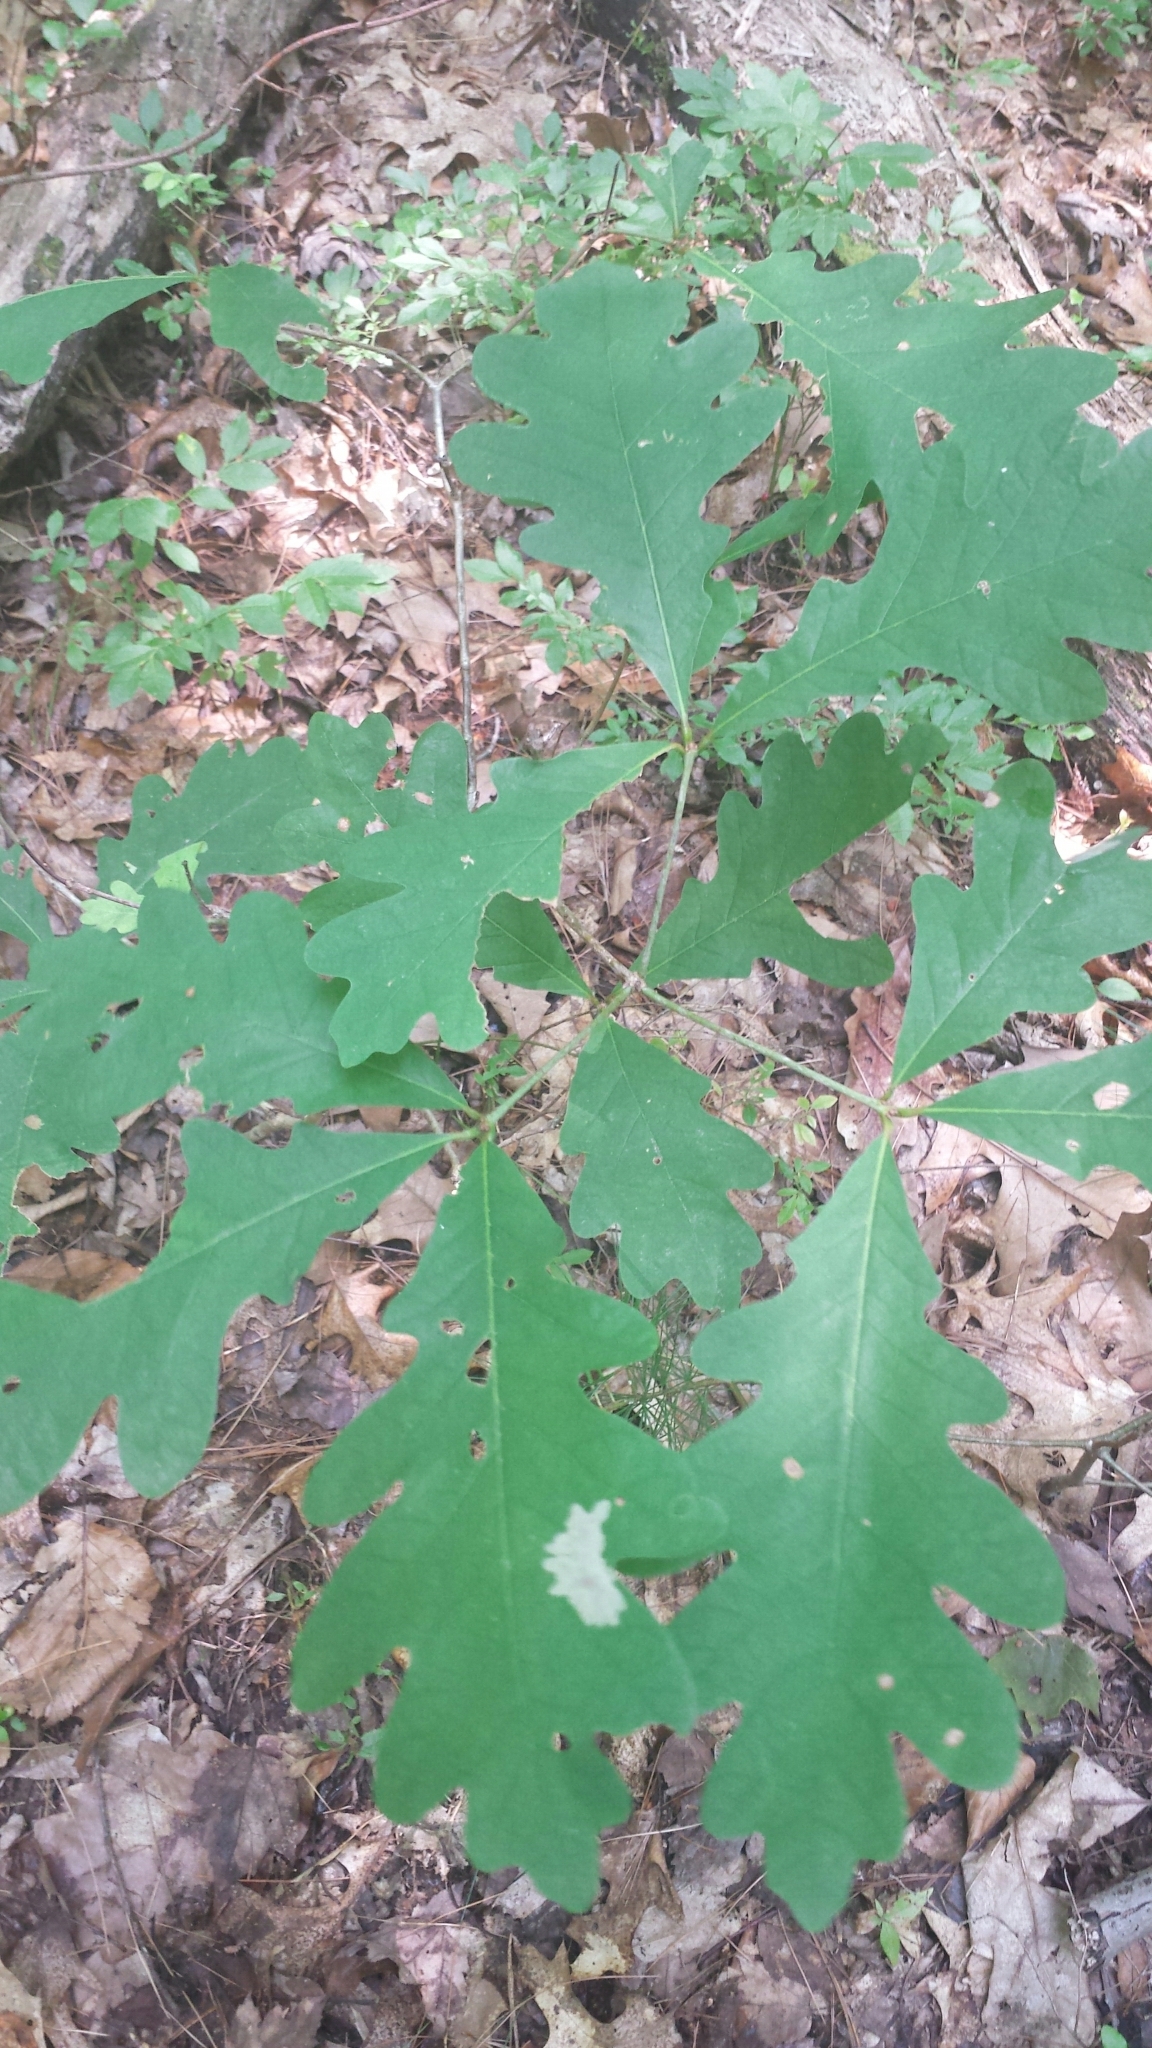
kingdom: Plantae
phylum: Tracheophyta
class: Magnoliopsida
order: Fagales
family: Fagaceae
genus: Quercus
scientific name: Quercus alba
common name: White oak
